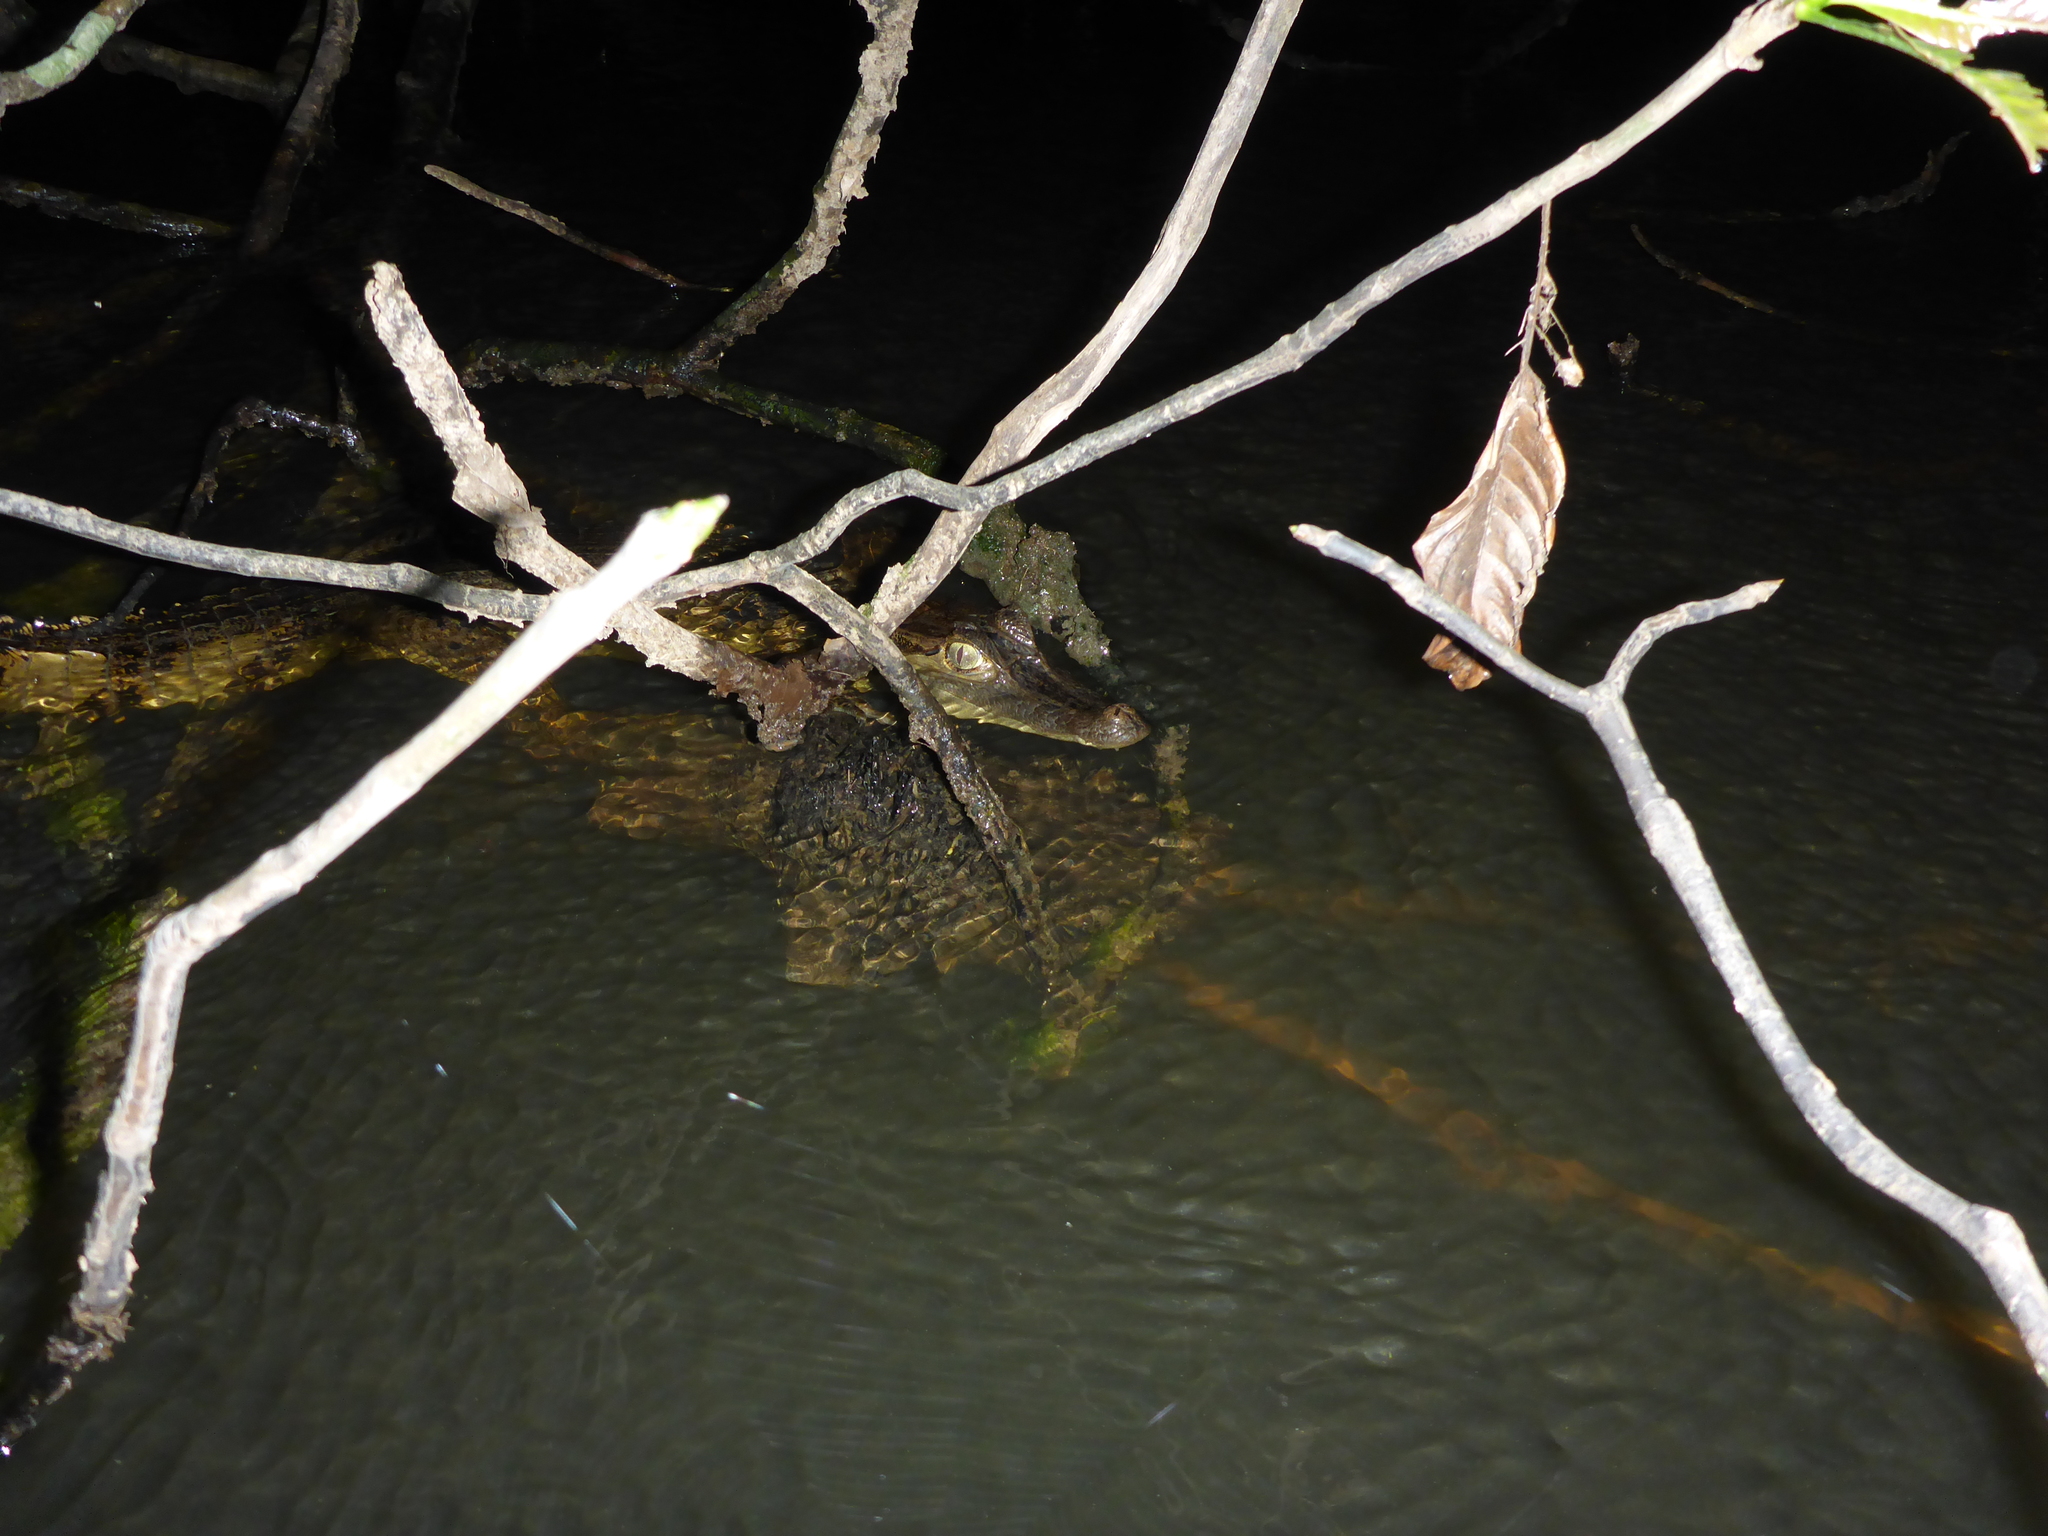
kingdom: Animalia
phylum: Chordata
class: Crocodylia
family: Alligatoridae
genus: Caiman
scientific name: Caiman crocodilus
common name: Common caiman
